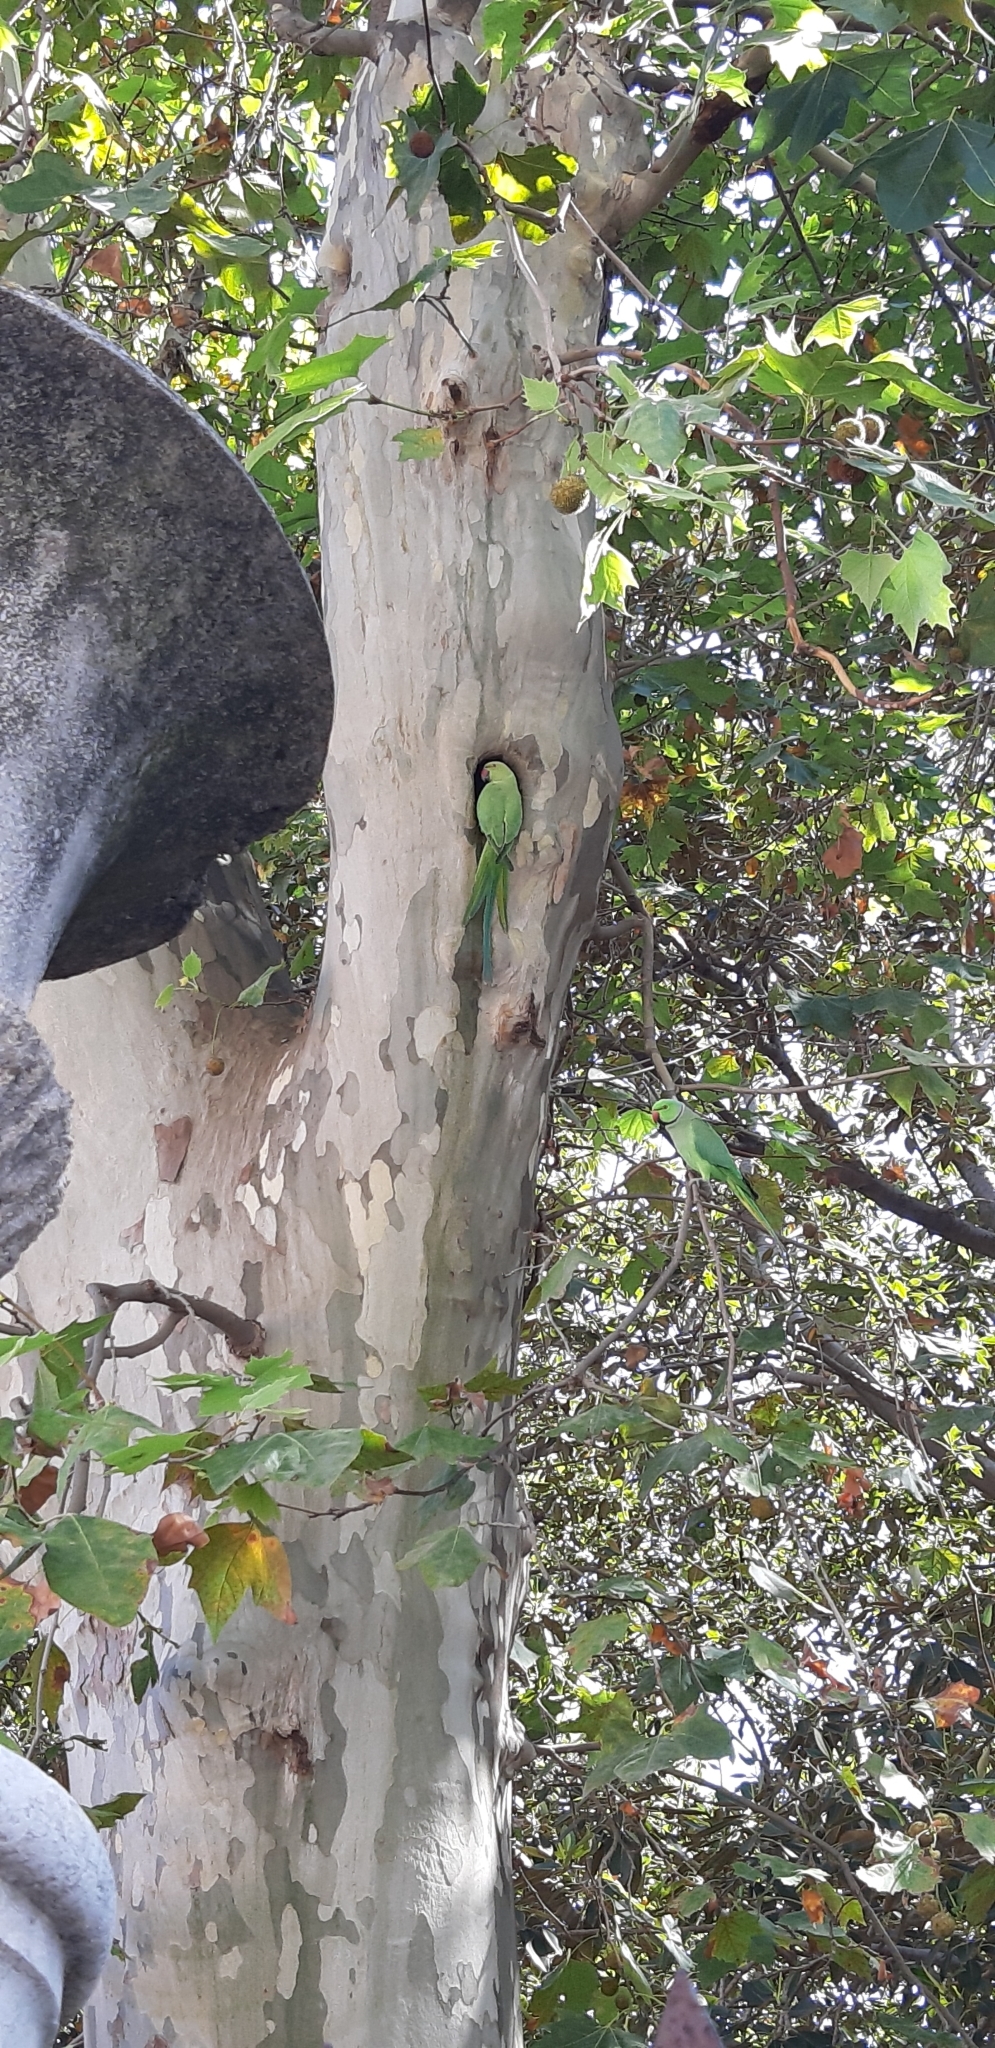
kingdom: Animalia
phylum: Chordata
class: Aves
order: Psittaciformes
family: Psittacidae
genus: Psittacula
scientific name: Psittacula krameri
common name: Rose-ringed parakeet
